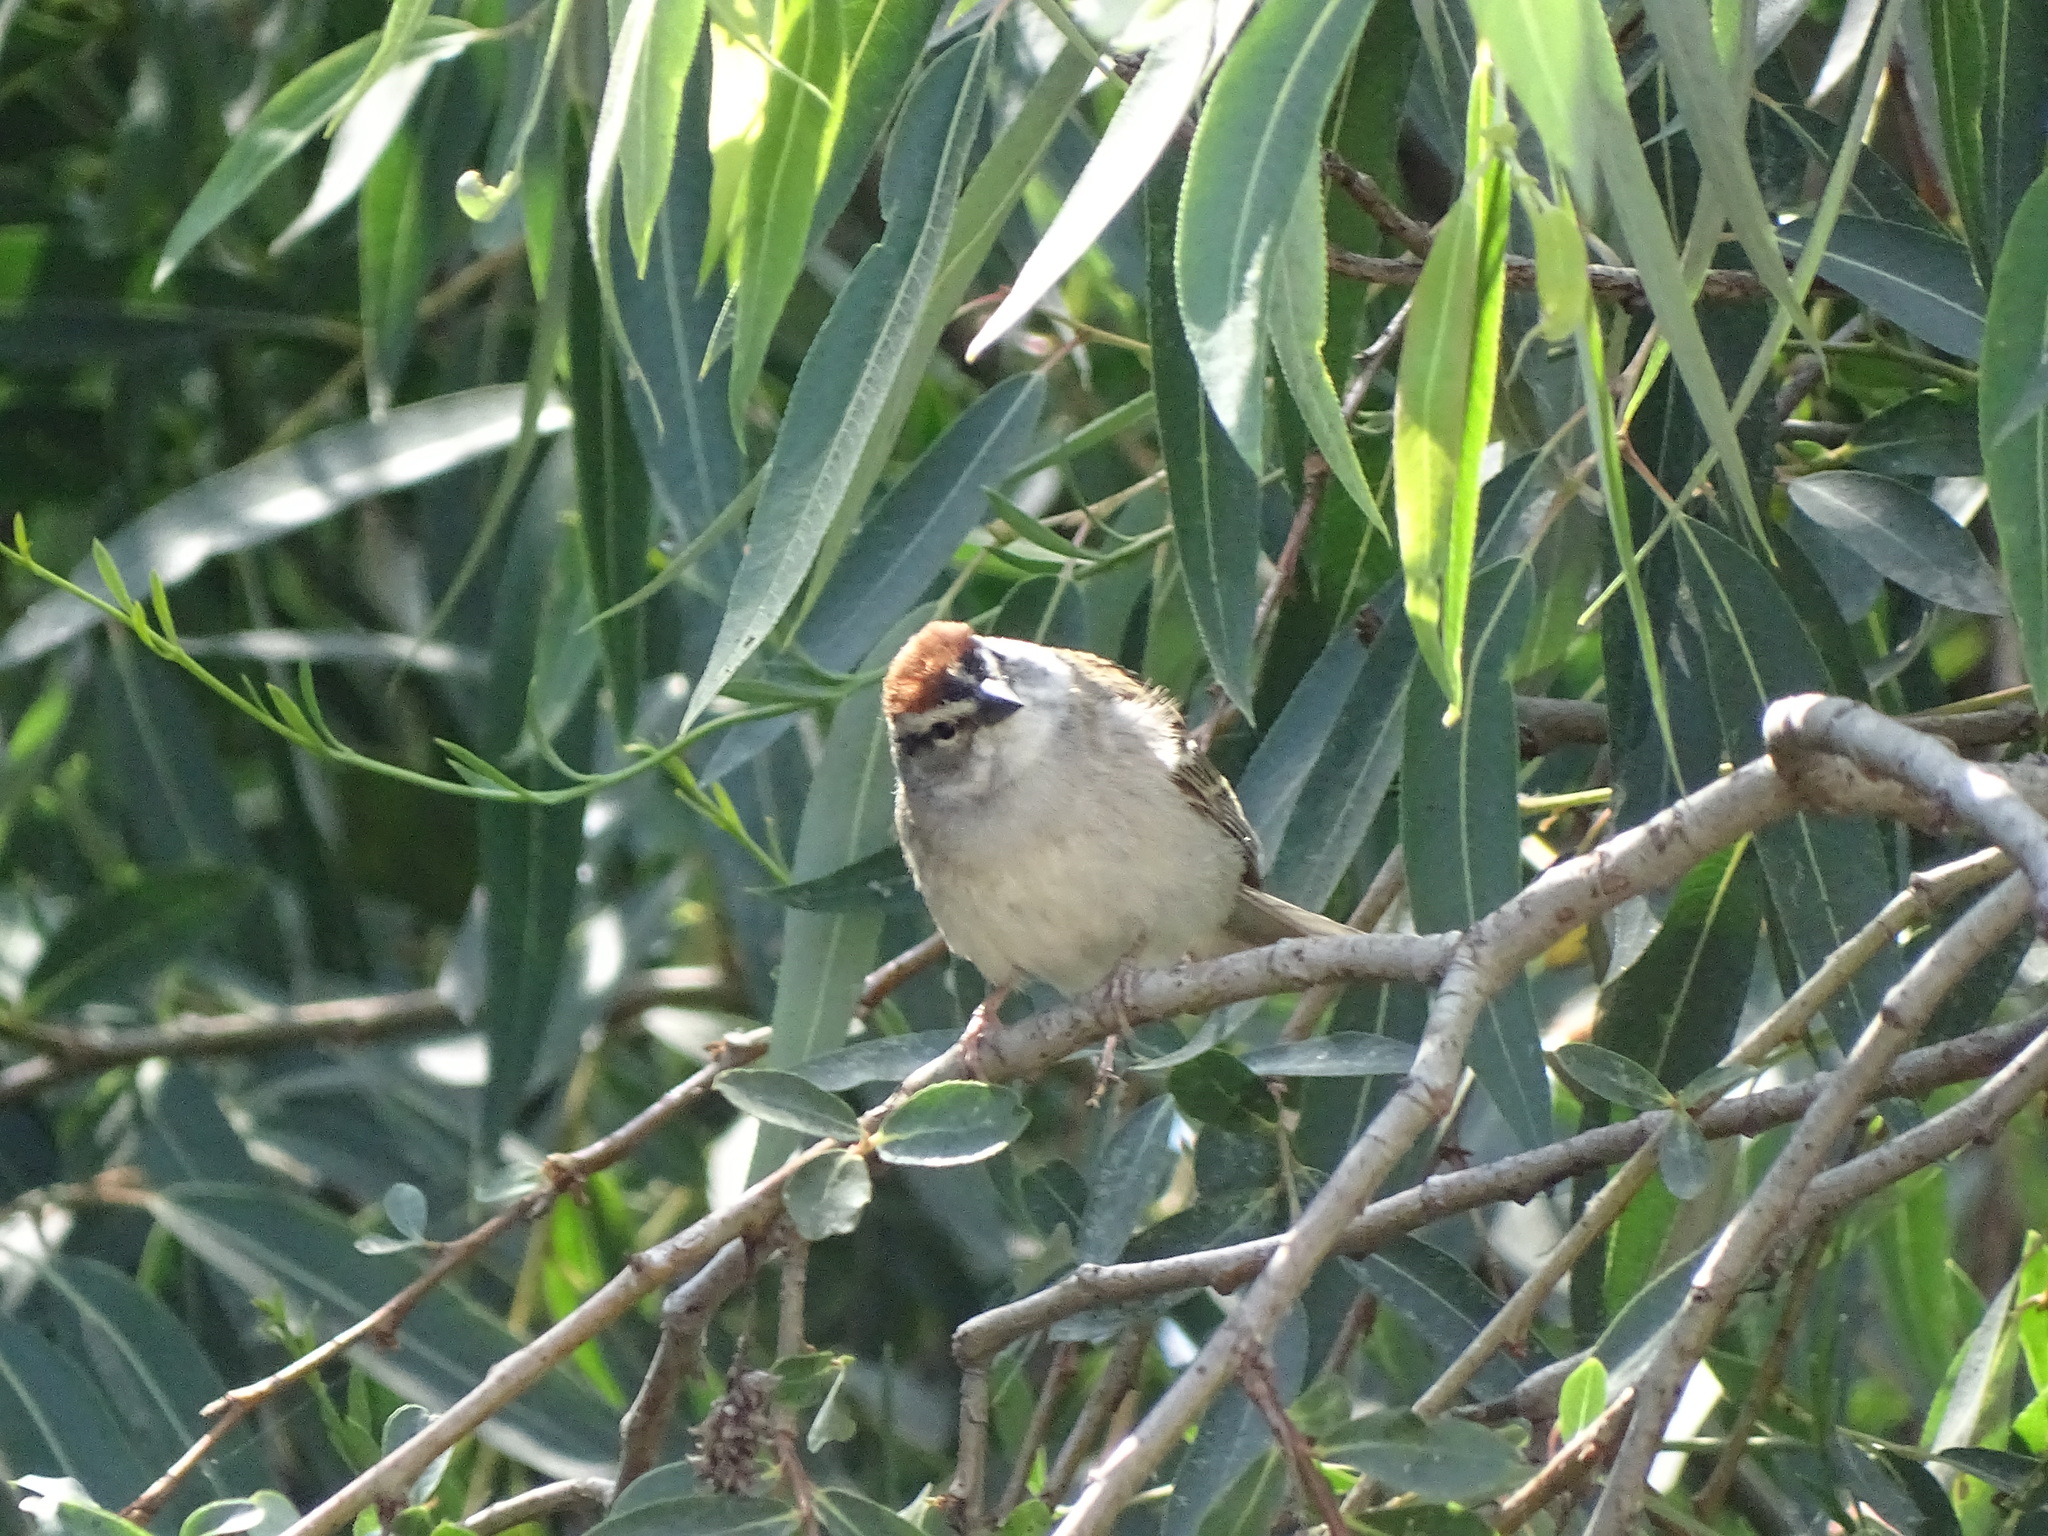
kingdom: Animalia
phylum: Chordata
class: Aves
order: Passeriformes
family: Passerellidae
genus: Spizella
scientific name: Spizella passerina
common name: Chipping sparrow
